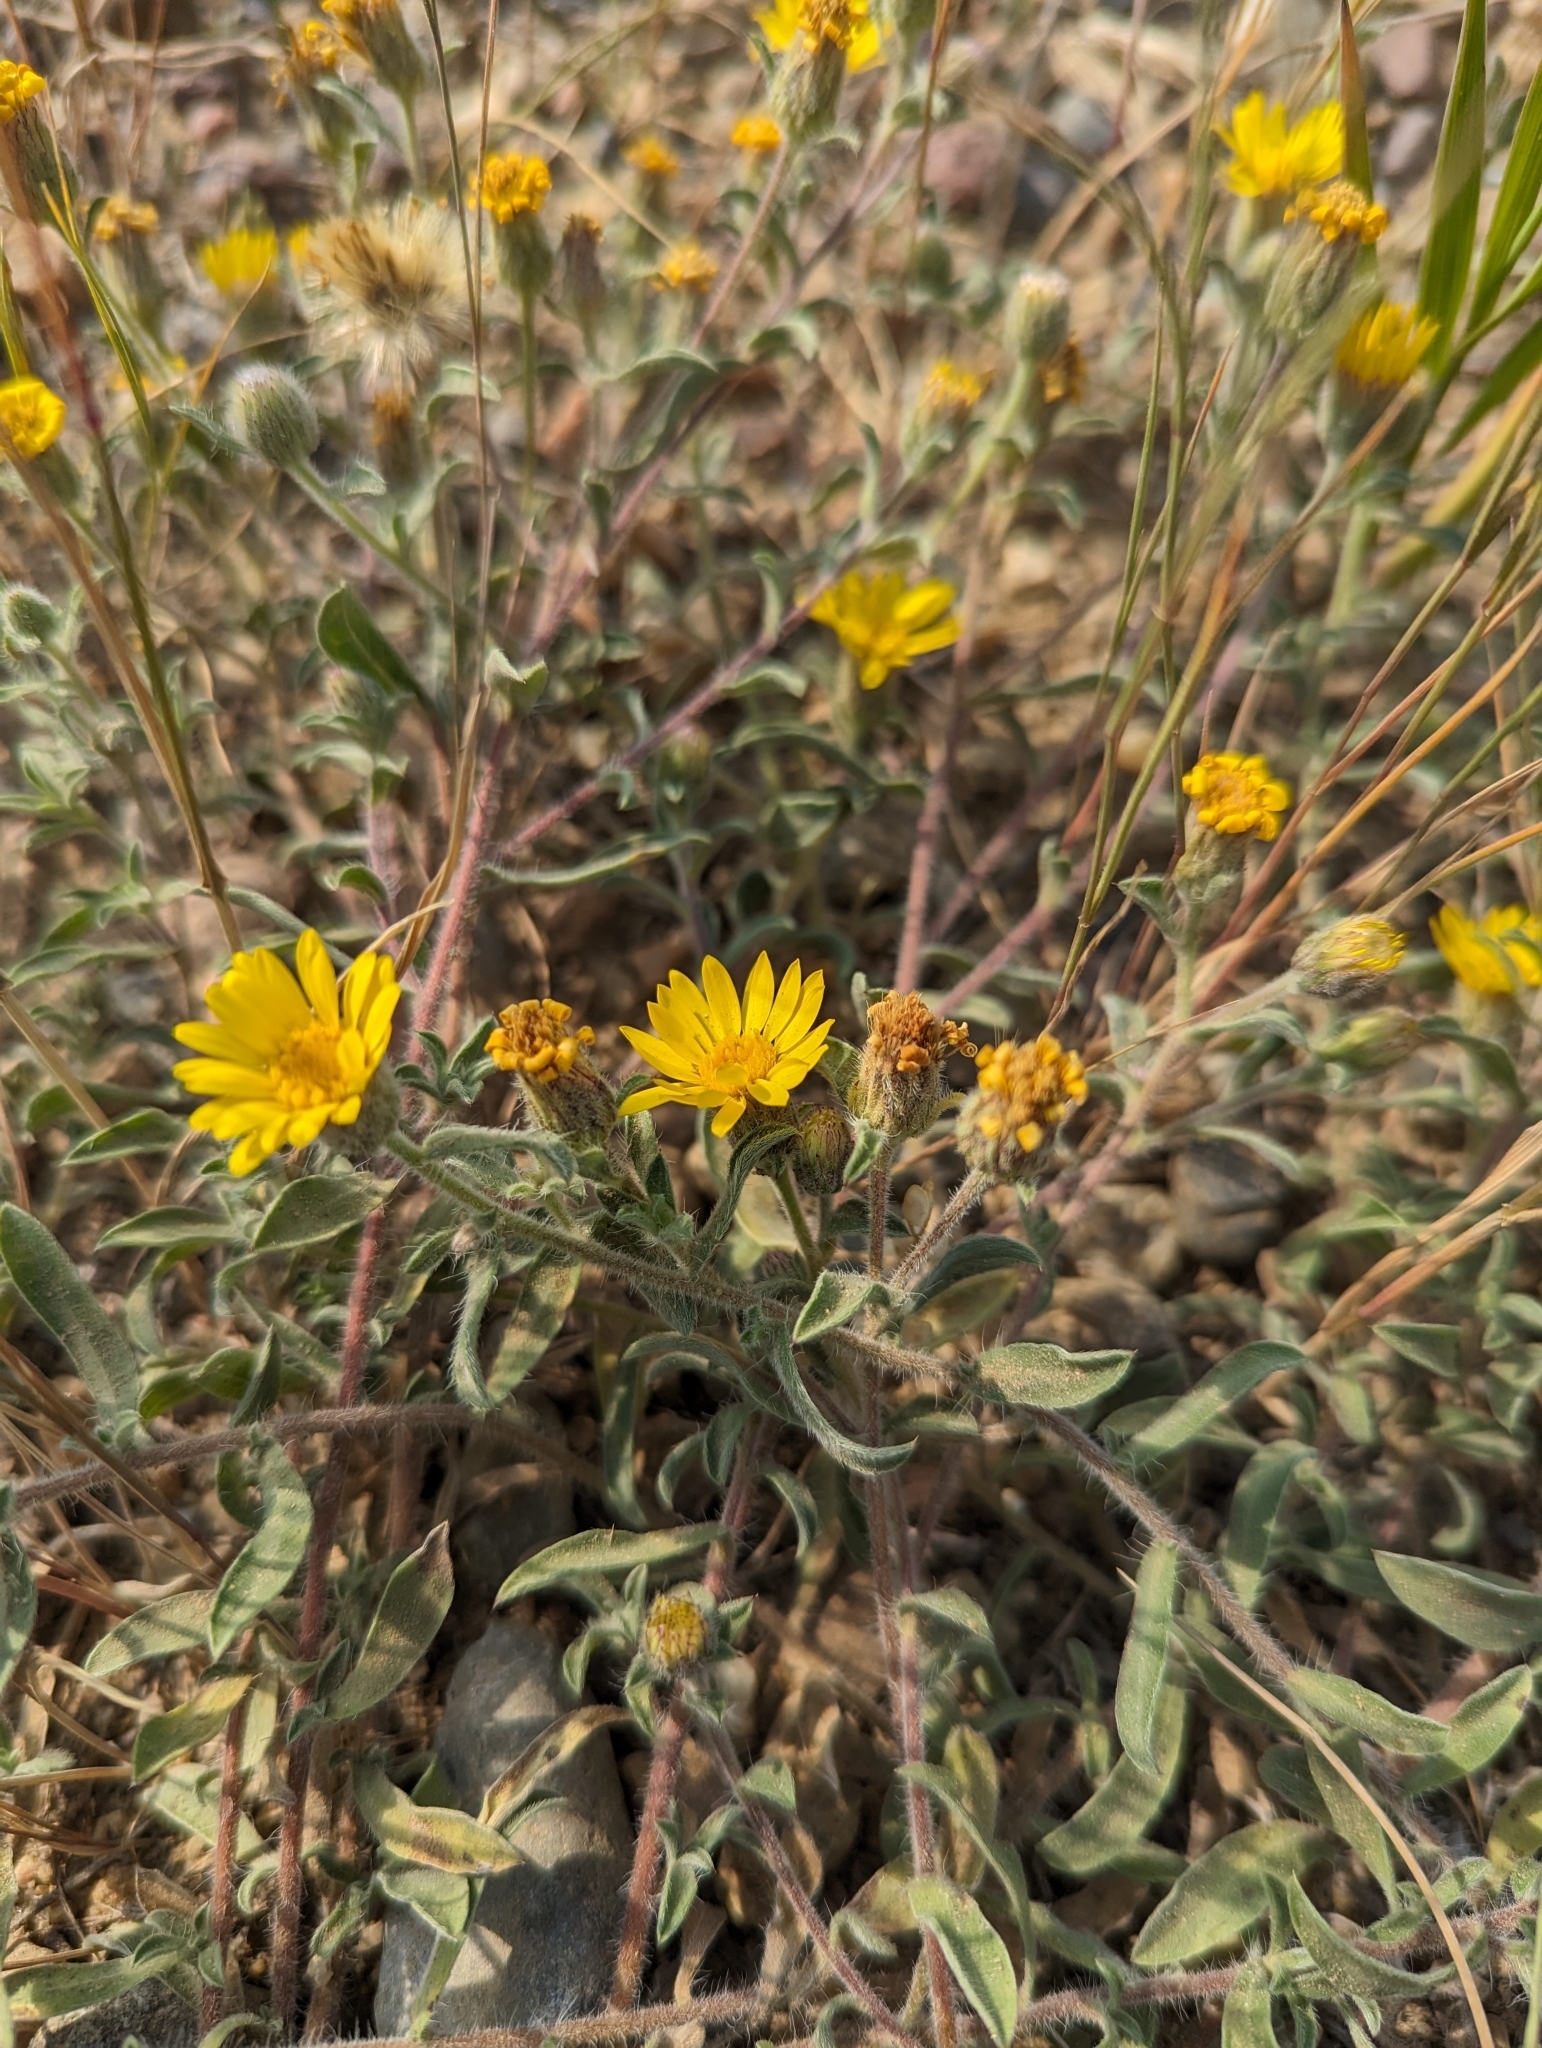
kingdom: Plantae
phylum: Tracheophyta
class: Magnoliopsida
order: Asterales
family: Asteraceae
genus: Heterotheca
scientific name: Heterotheca villosa
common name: Hairy false goldenaster
